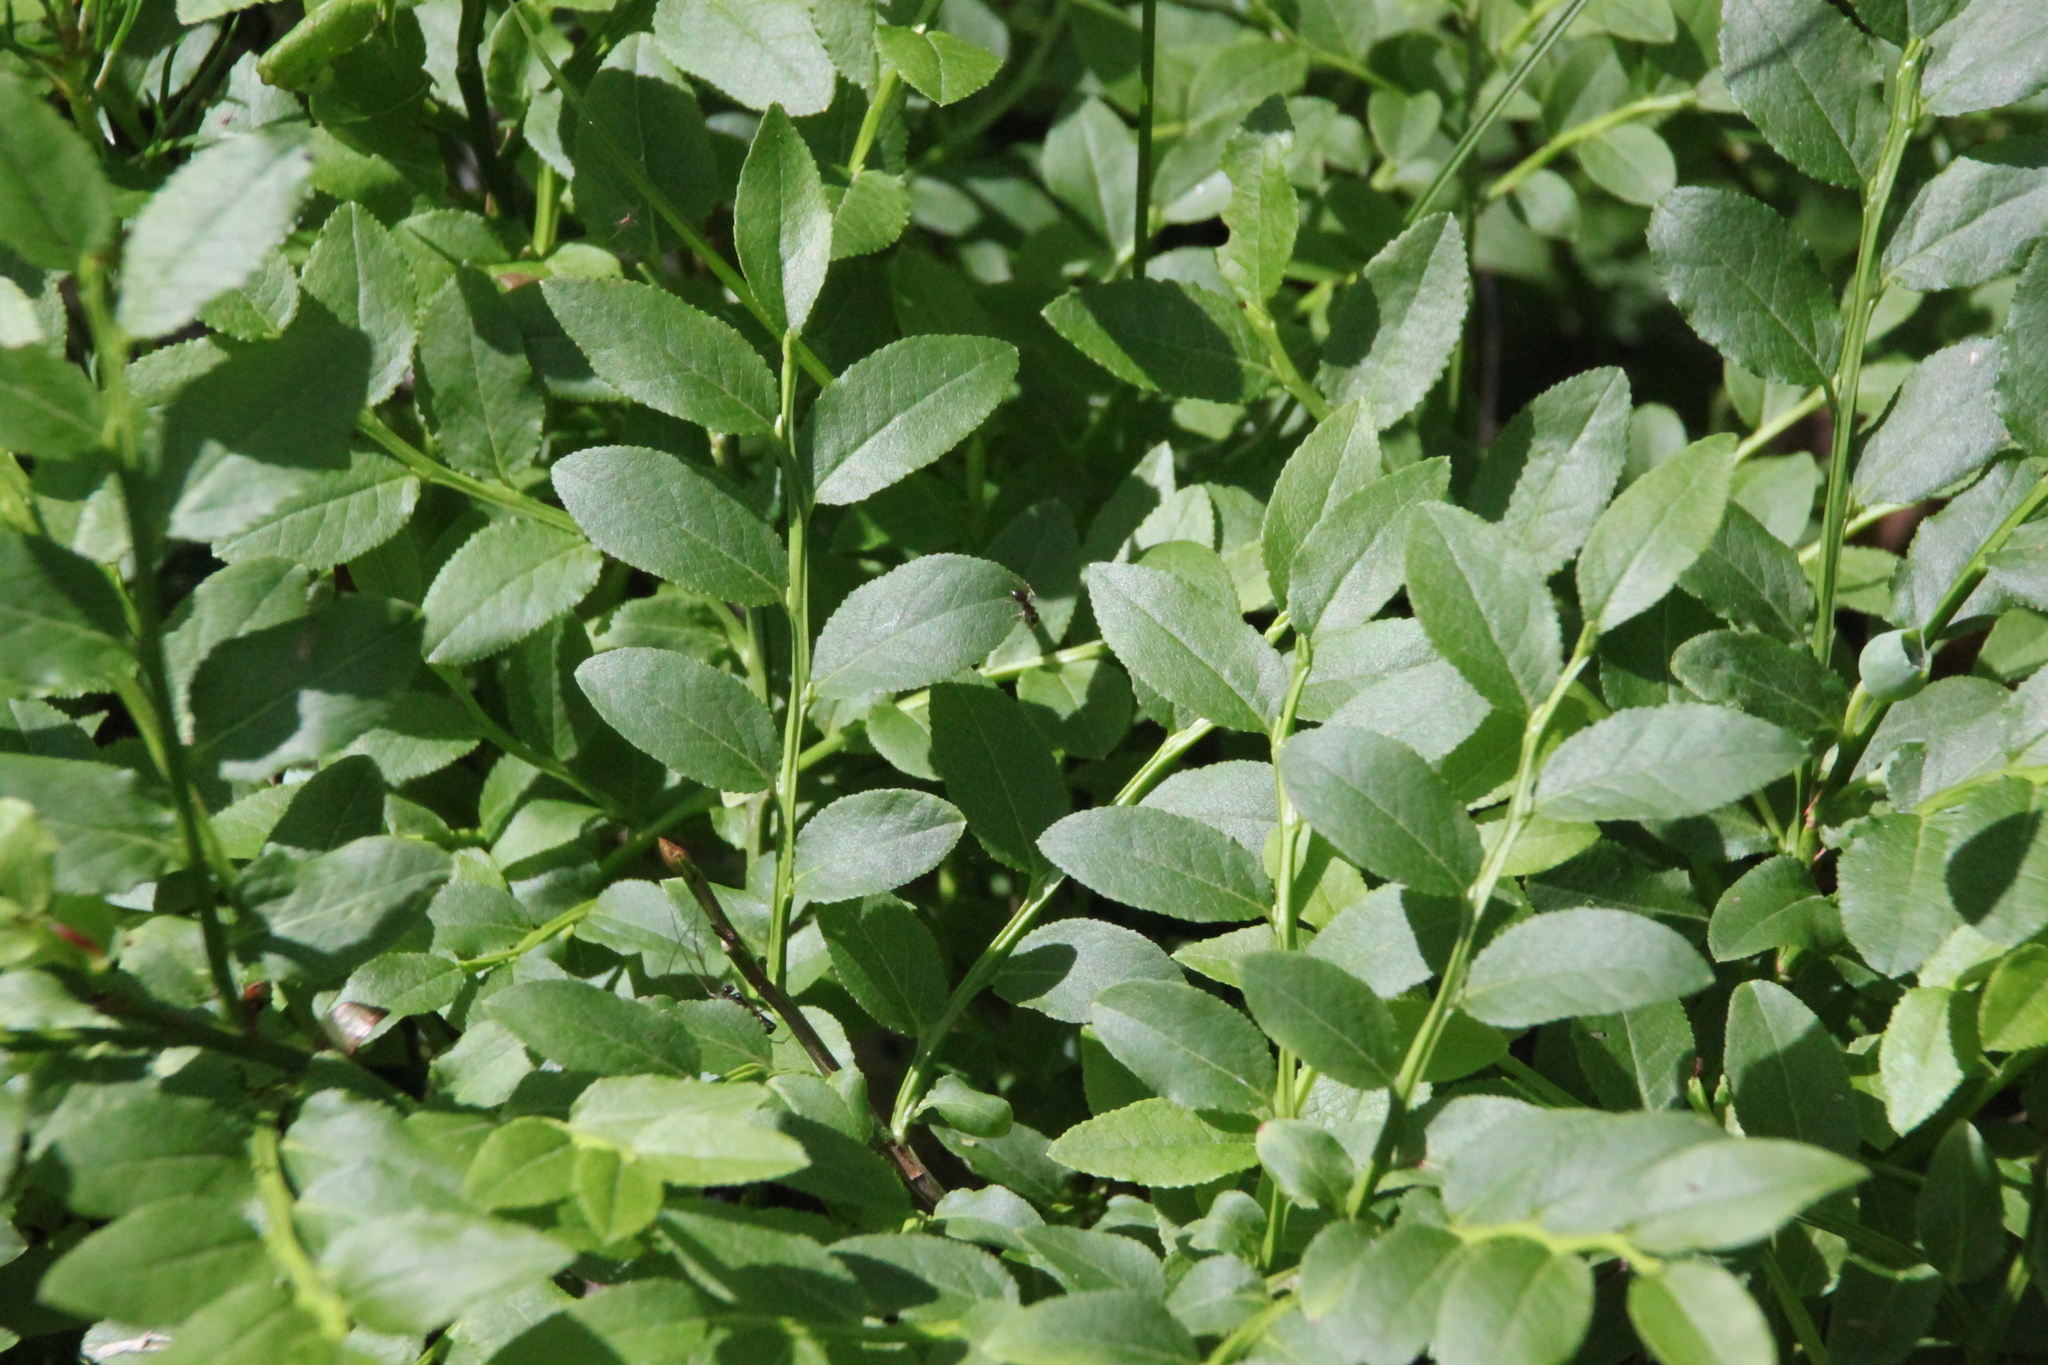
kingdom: Plantae
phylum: Tracheophyta
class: Magnoliopsida
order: Ericales
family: Ericaceae
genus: Vaccinium
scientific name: Vaccinium myrtillus
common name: Bilberry
